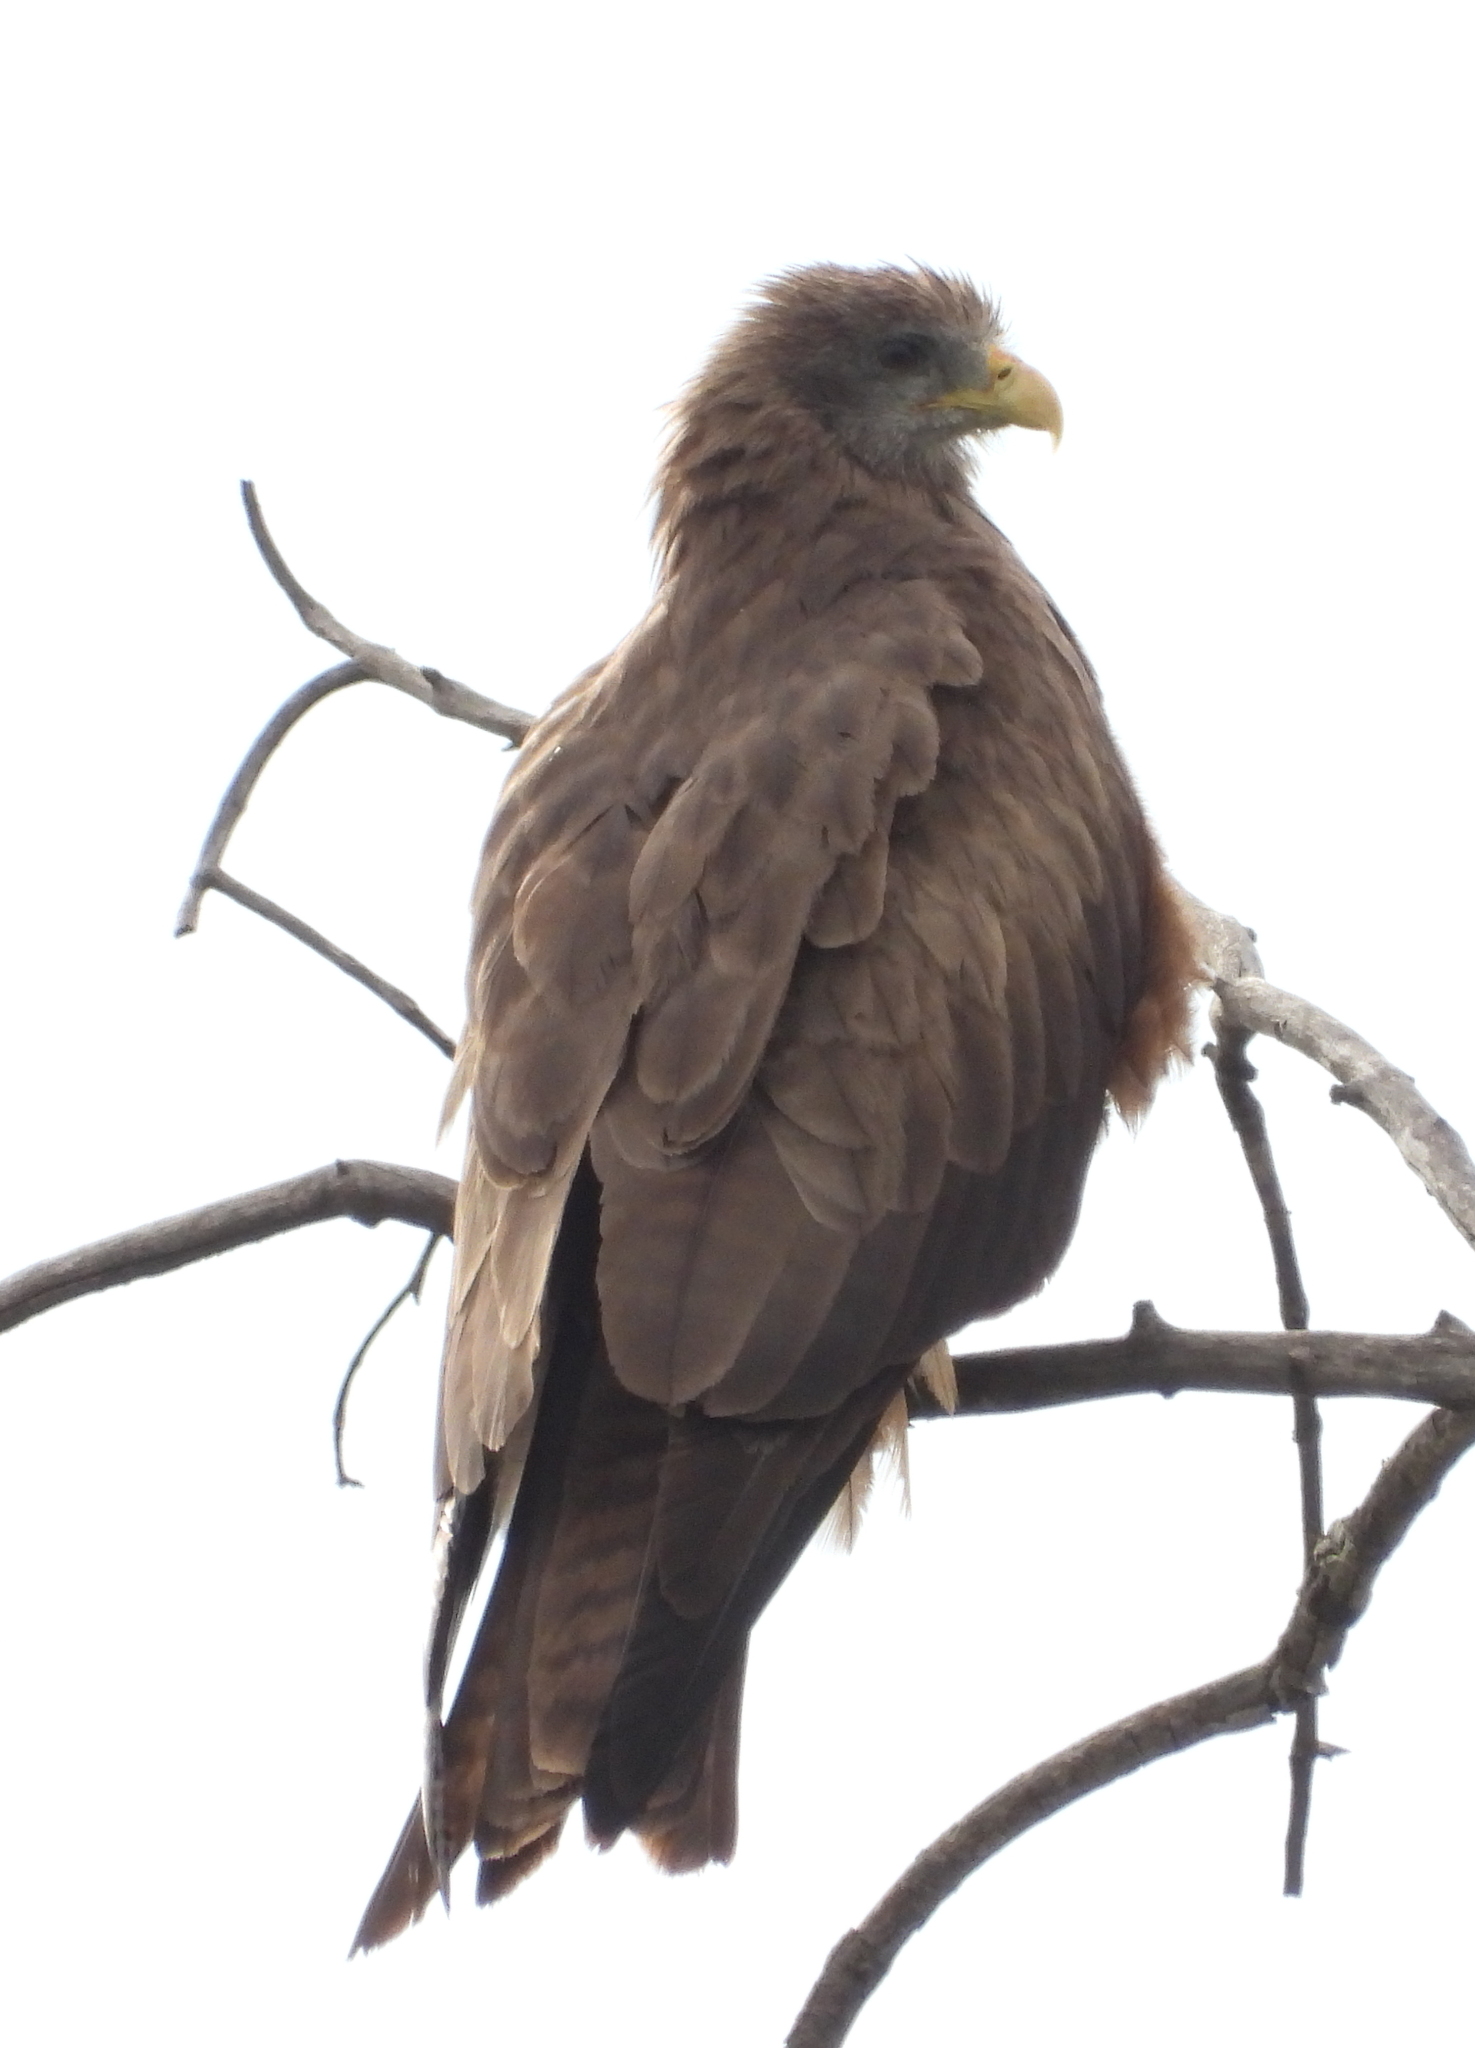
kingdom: Animalia
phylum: Chordata
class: Aves
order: Accipitriformes
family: Accipitridae
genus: Milvus
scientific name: Milvus migrans
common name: Black kite
